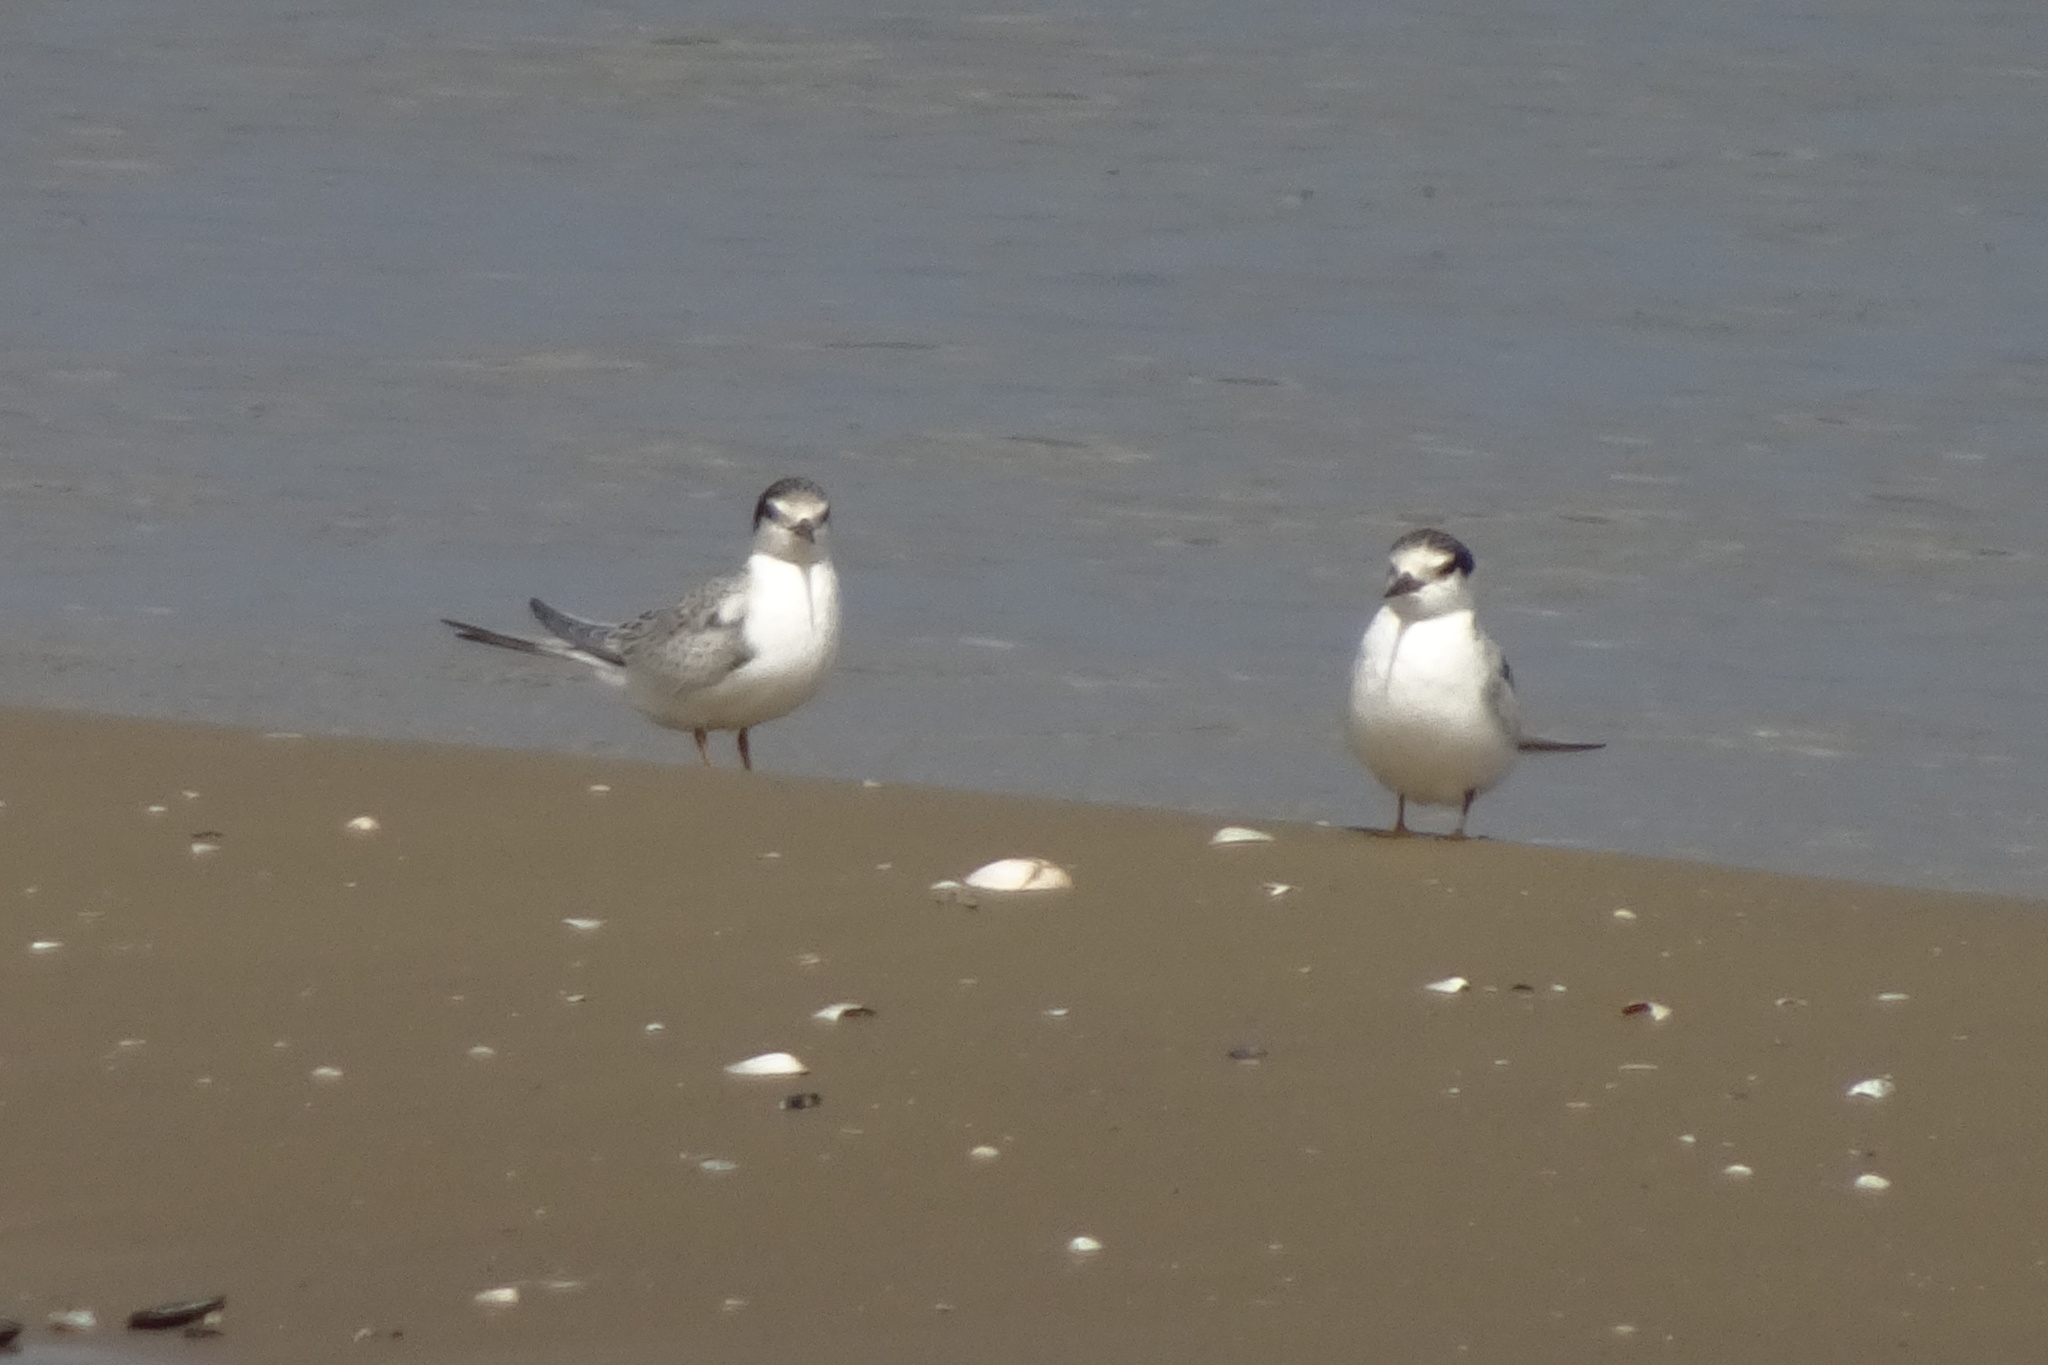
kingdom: Animalia
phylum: Chordata
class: Aves
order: Charadriiformes
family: Laridae
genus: Sternula
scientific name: Sternula albifrons
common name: Little tern
